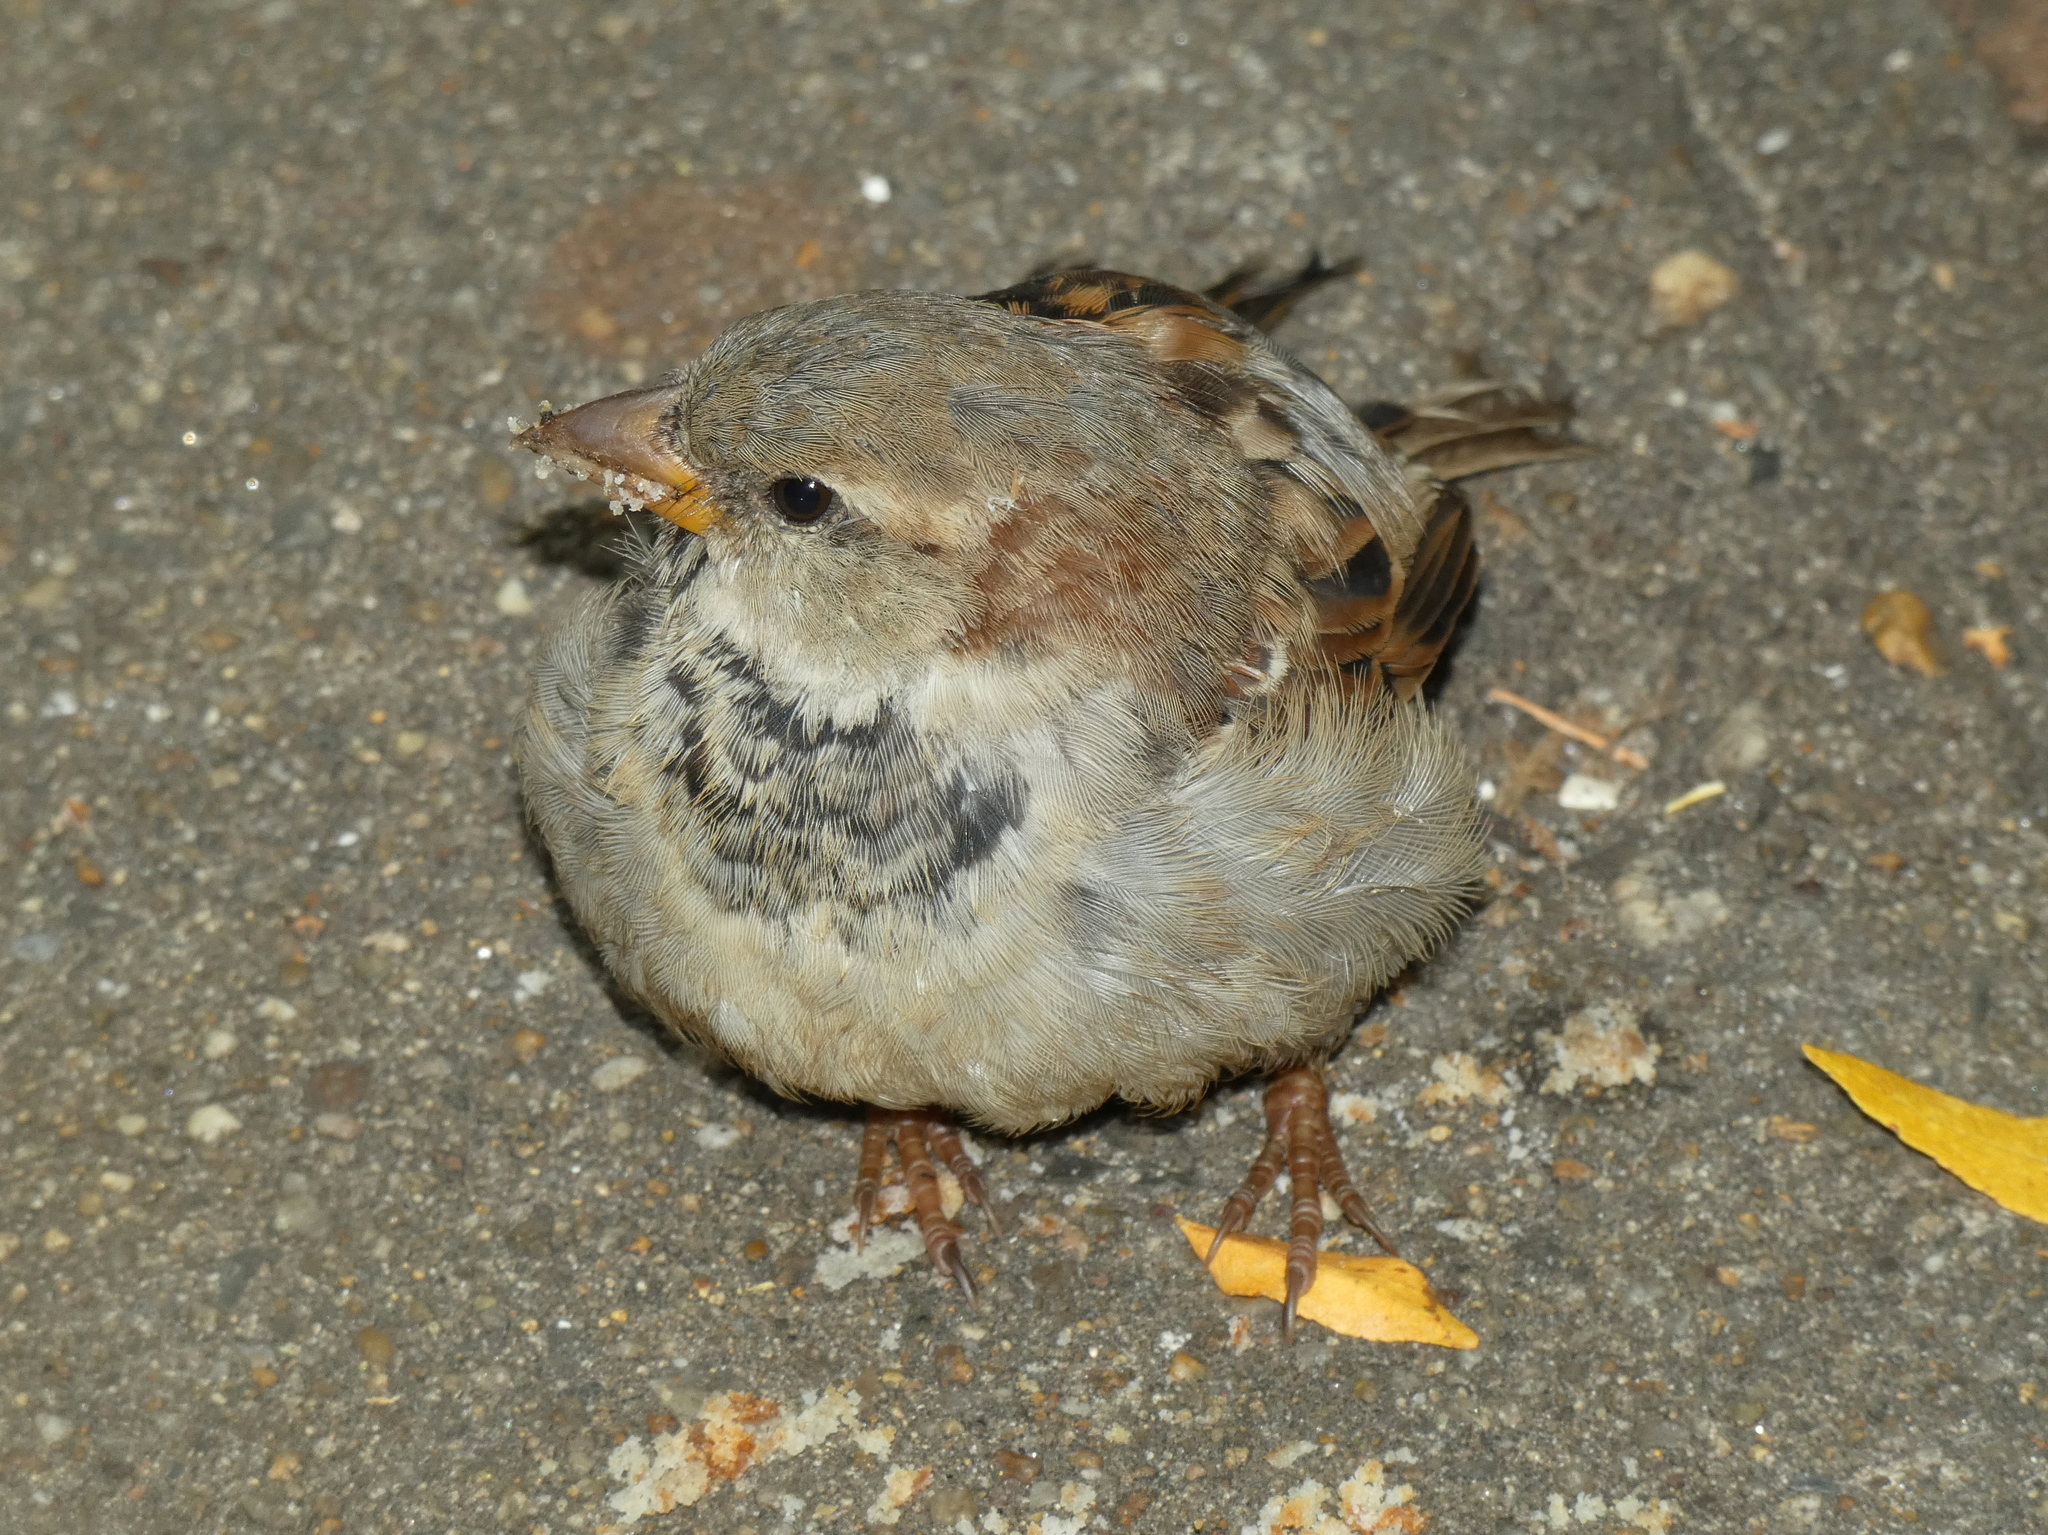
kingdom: Animalia
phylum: Chordata
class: Aves
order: Passeriformes
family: Passeridae
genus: Passer
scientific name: Passer domesticus
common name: House sparrow
